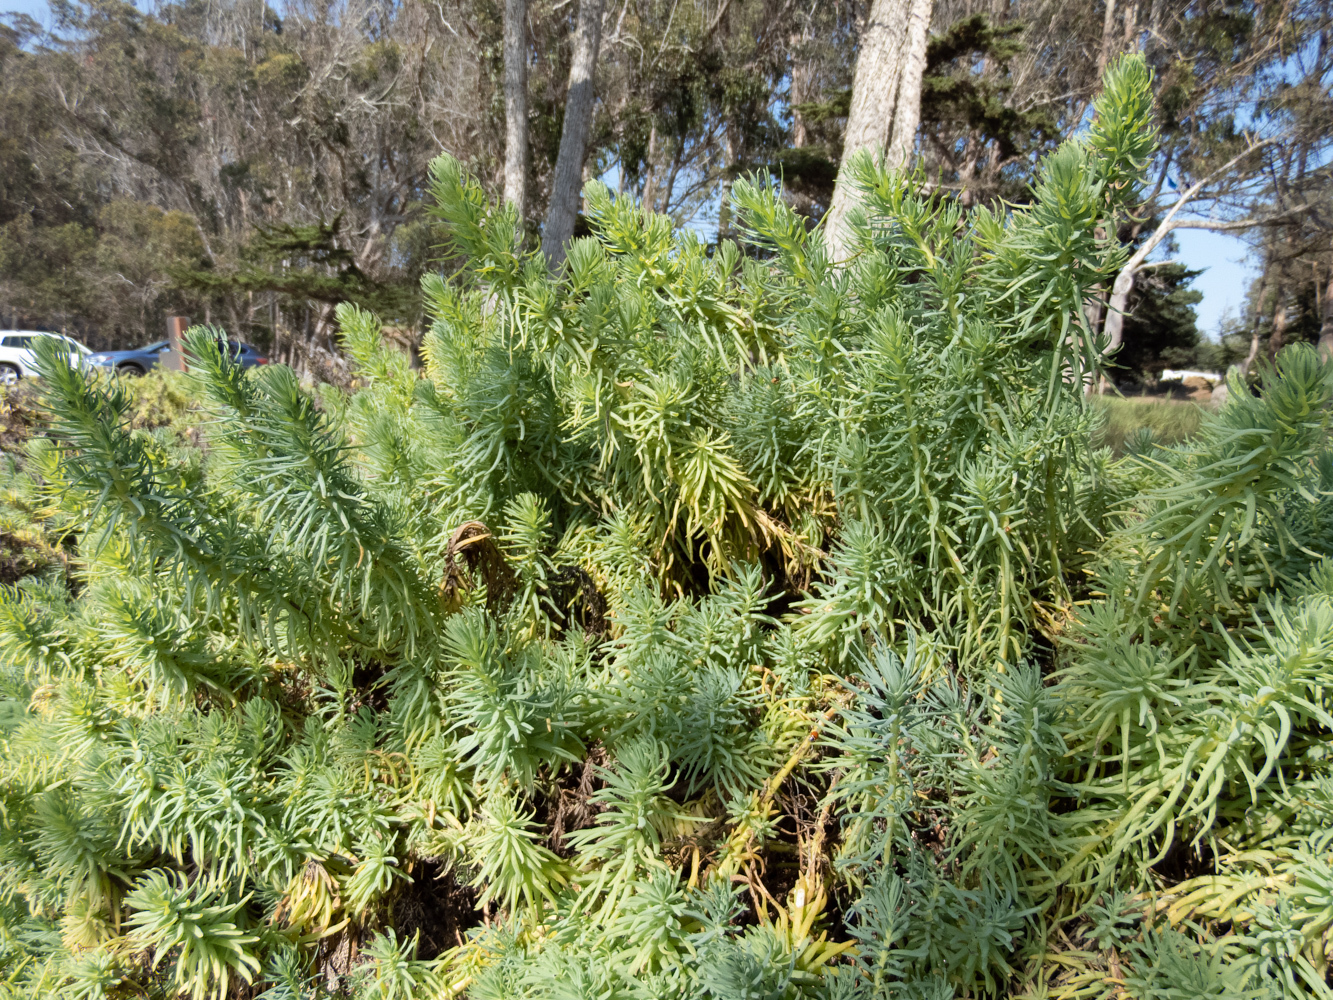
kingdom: Plantae
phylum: Tracheophyta
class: Magnoliopsida
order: Caryophyllales
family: Amaranthaceae
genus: Suaeda
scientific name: Suaeda californica
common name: California sea-blite
